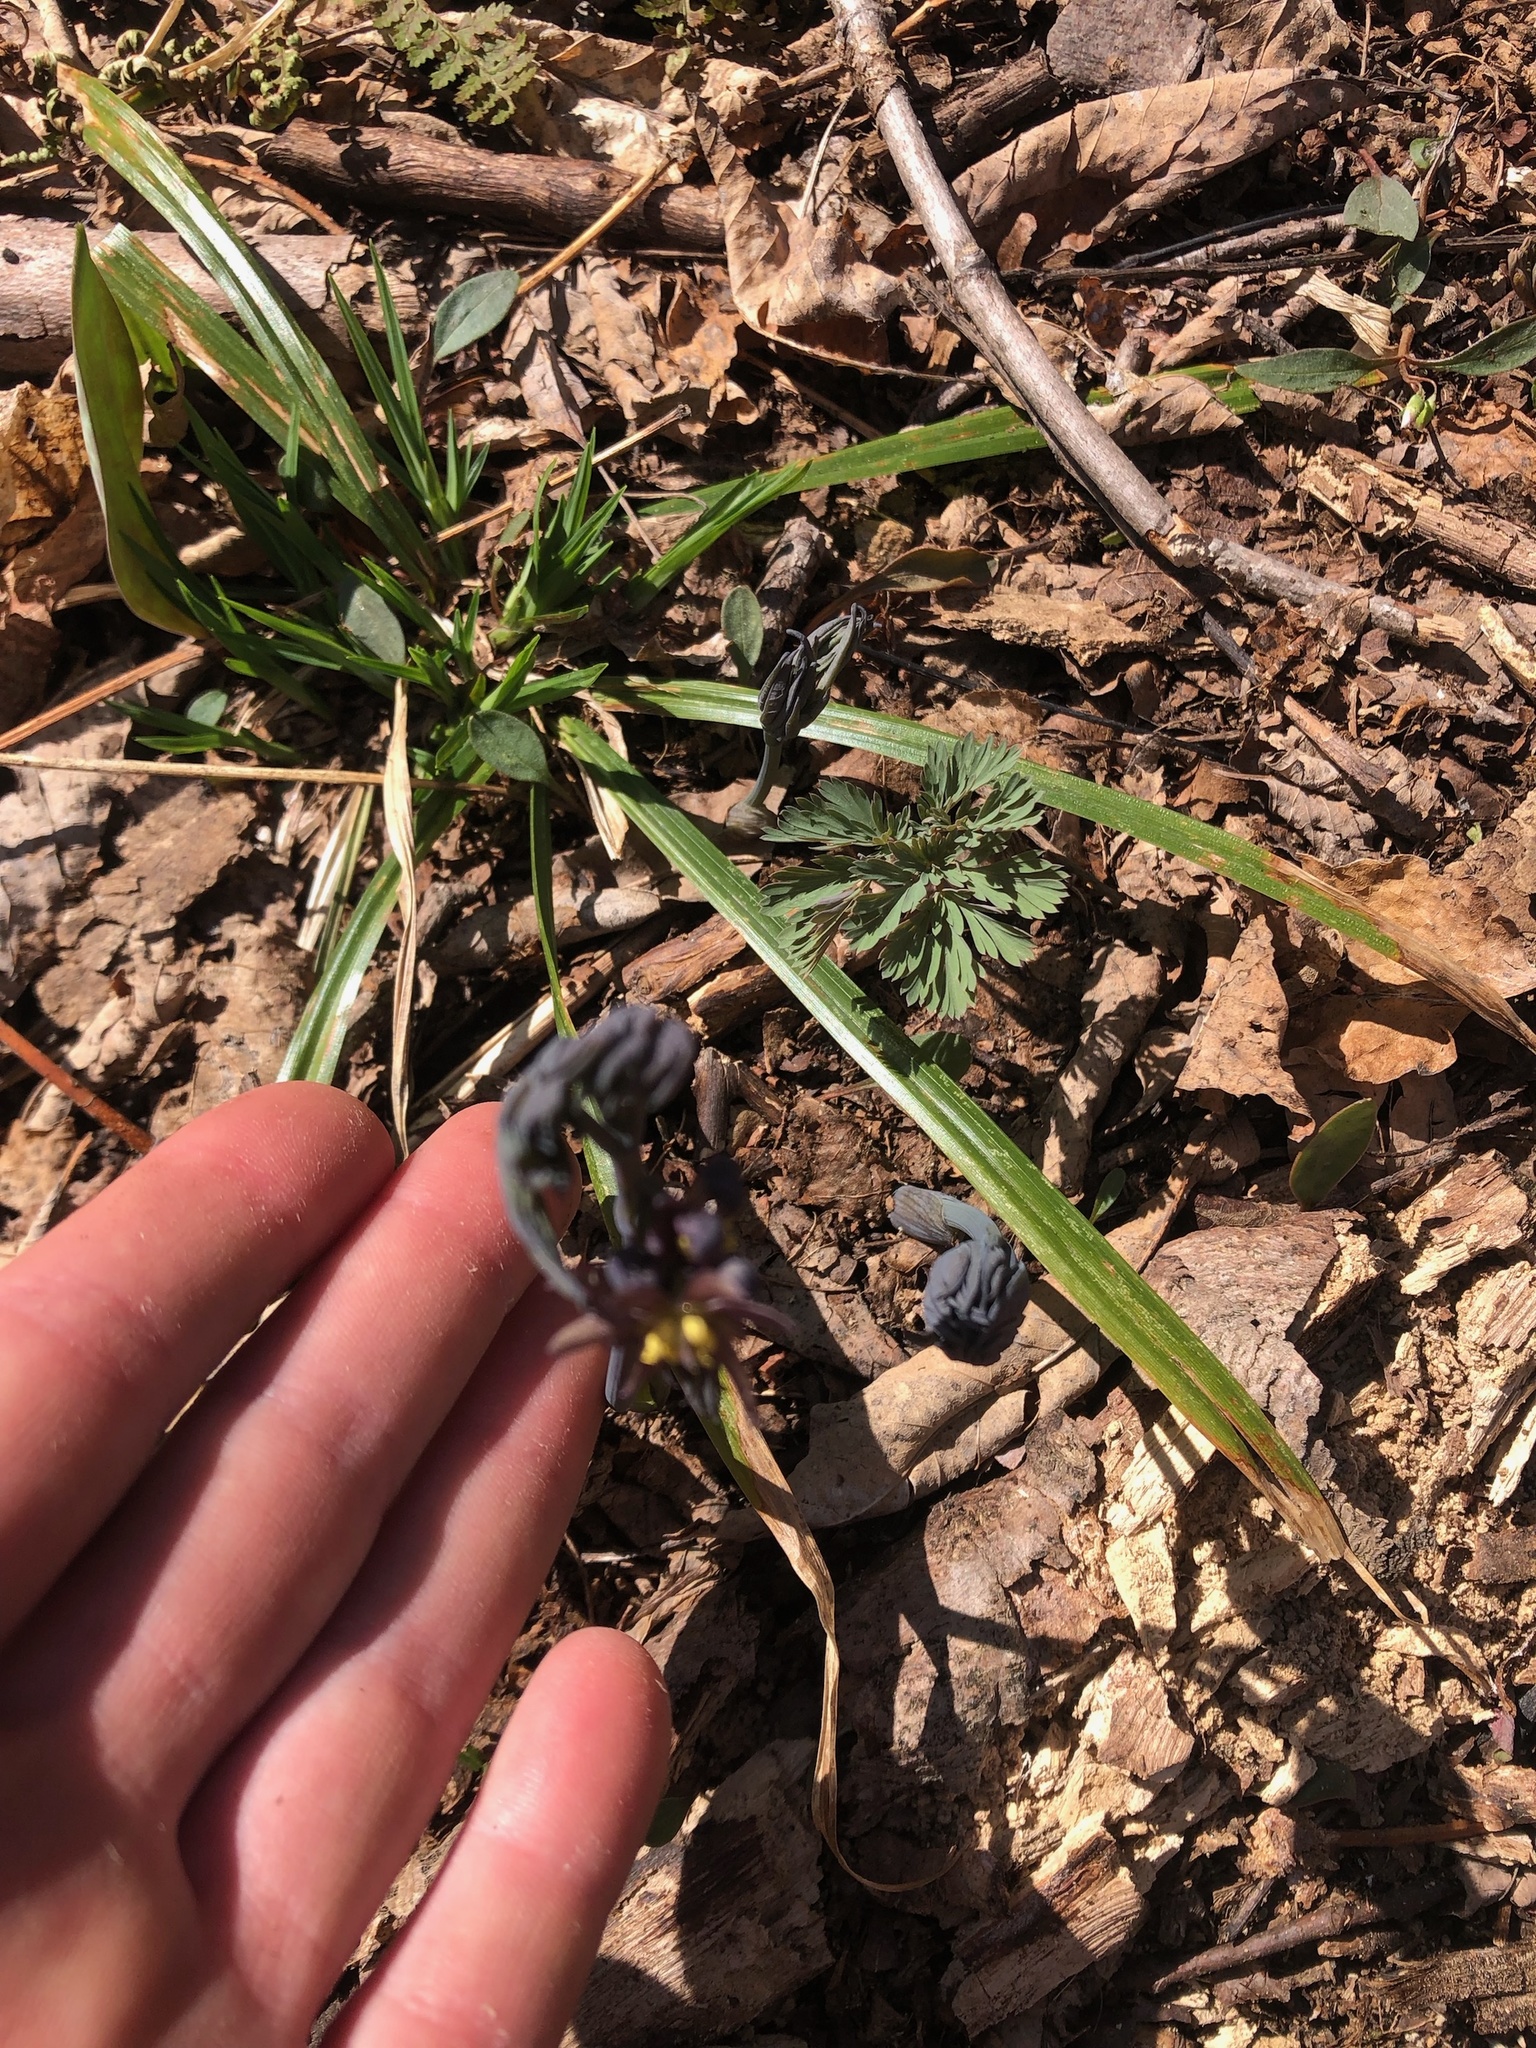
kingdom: Plantae
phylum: Tracheophyta
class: Magnoliopsida
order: Ranunculales
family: Berberidaceae
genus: Caulophyllum
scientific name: Caulophyllum giganteum
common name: Blue cohosh
